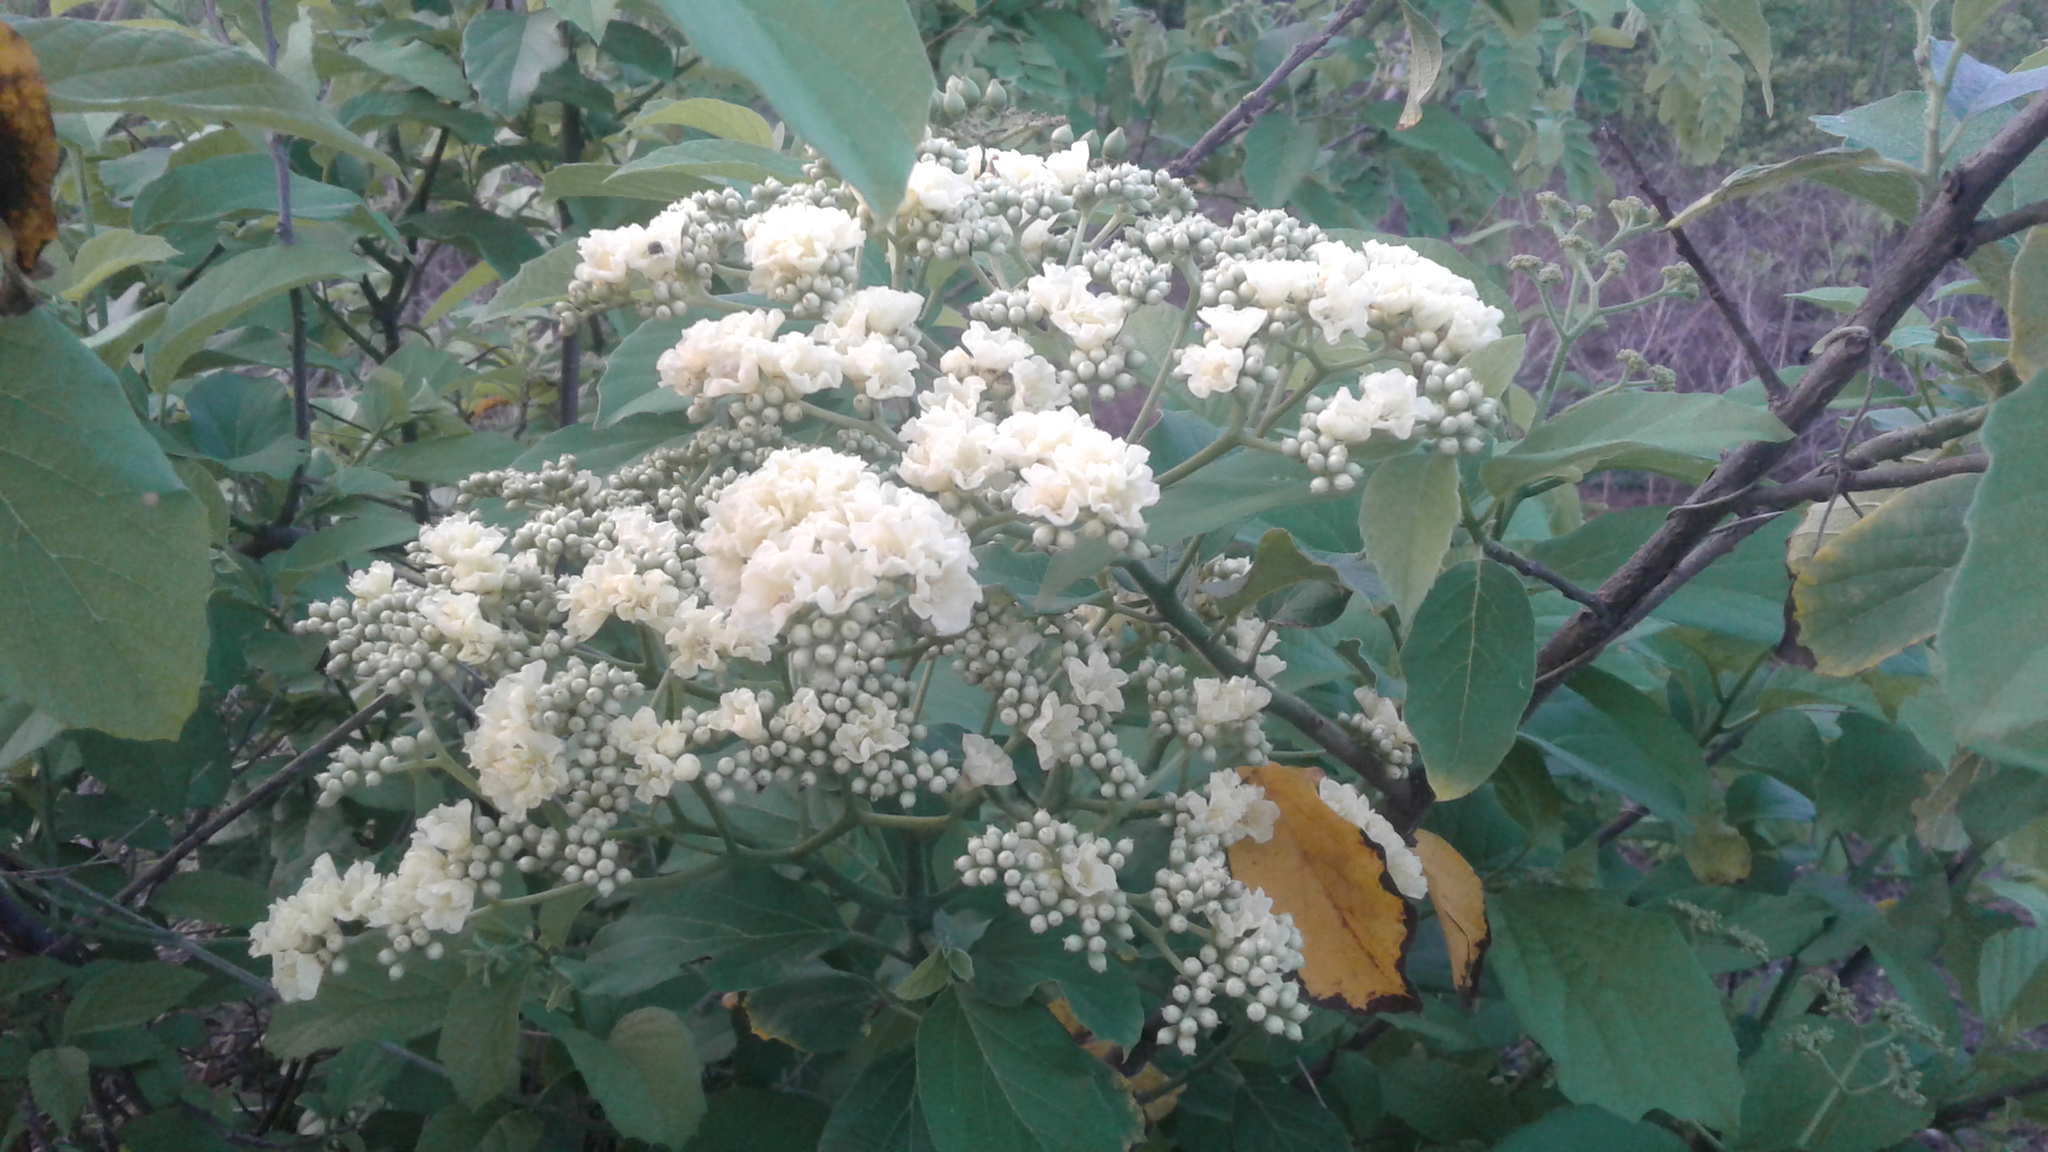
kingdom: Plantae
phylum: Tracheophyta
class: Magnoliopsida
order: Boraginales
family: Cordiaceae
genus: Cordia
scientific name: Cordia dentata
